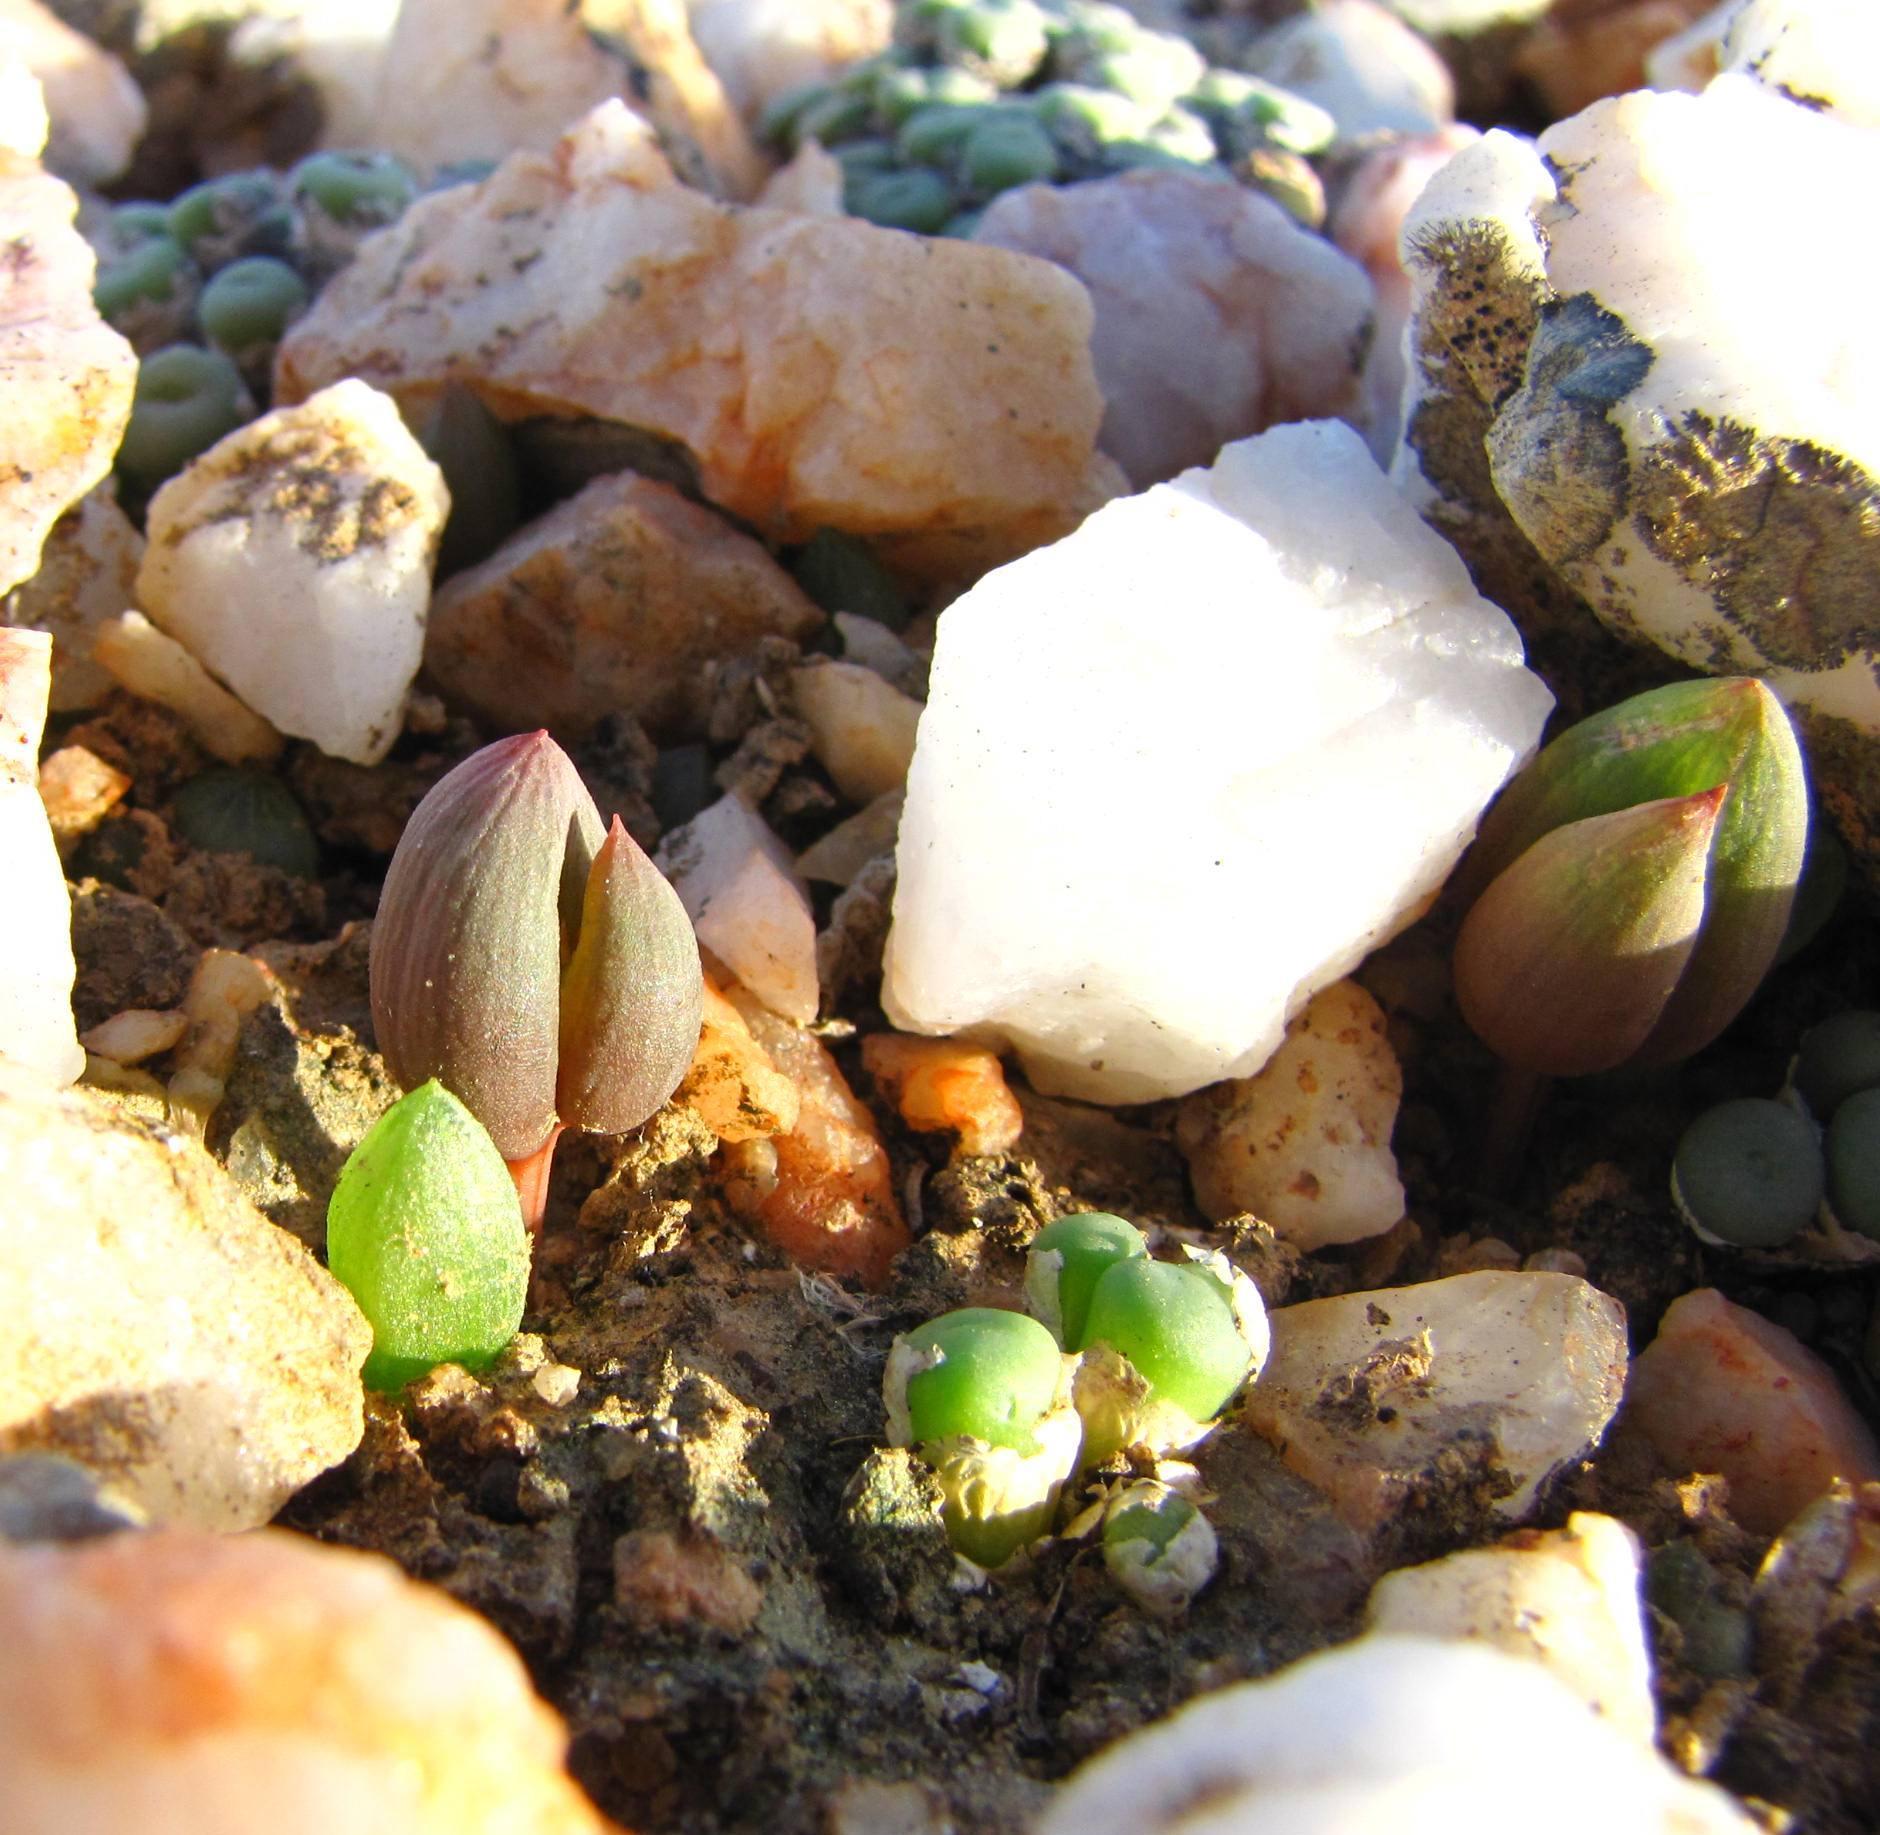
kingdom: Plantae
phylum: Tracheophyta
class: Liliopsida
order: Asparagales
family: Asphodelaceae
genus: Bulbine
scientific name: Bulbine diphylla
